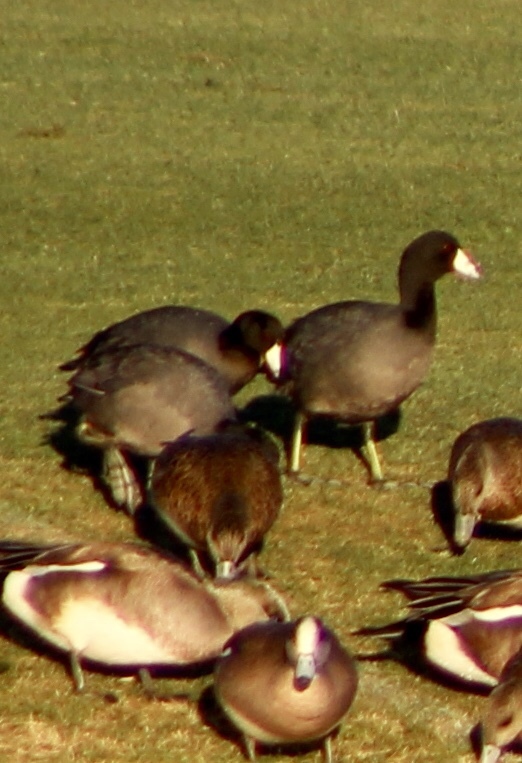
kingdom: Animalia
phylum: Chordata
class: Aves
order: Gruiformes
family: Rallidae
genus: Fulica
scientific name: Fulica americana
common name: American coot
